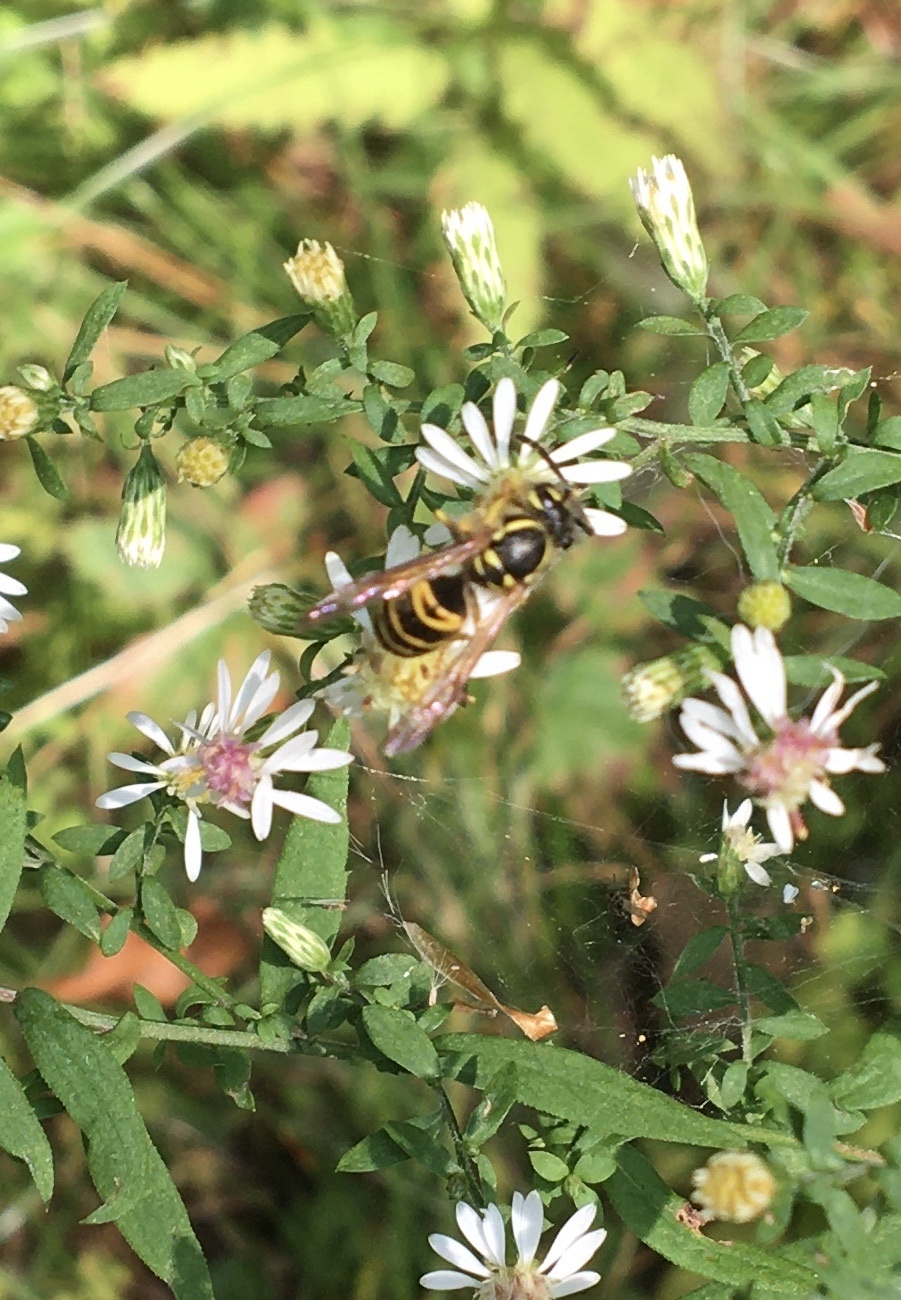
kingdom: Animalia
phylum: Arthropoda
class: Insecta
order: Hymenoptera
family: Vespidae
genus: Vespula
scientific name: Vespula maculifrons
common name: Eastern yellowjacket
